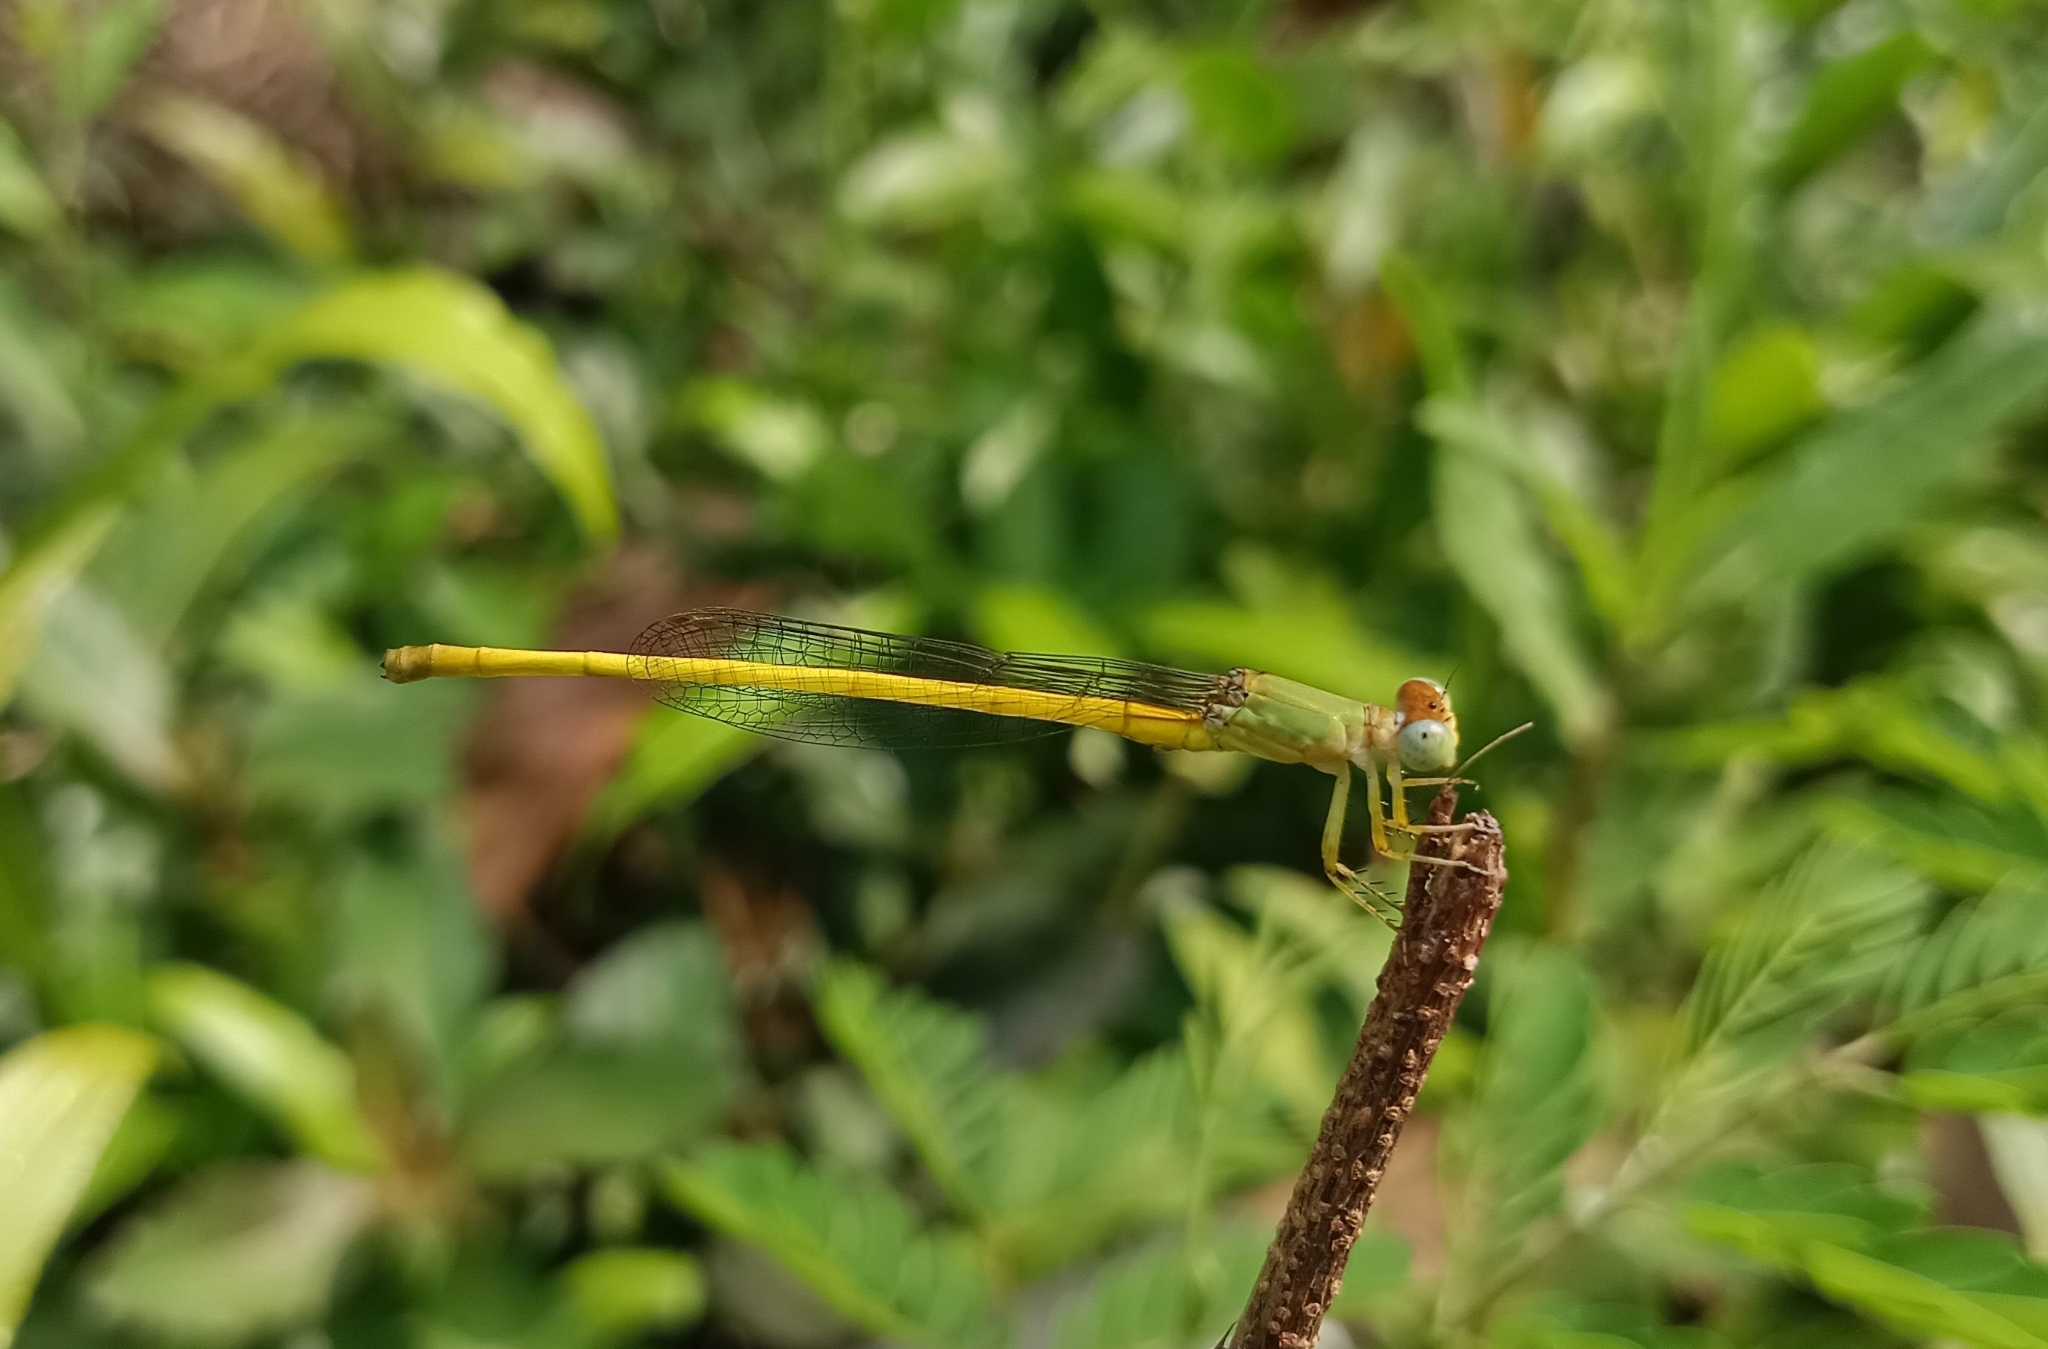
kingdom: Animalia
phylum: Arthropoda
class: Insecta
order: Odonata
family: Coenagrionidae
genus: Ceriagrion
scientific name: Ceriagrion coromandelianum
